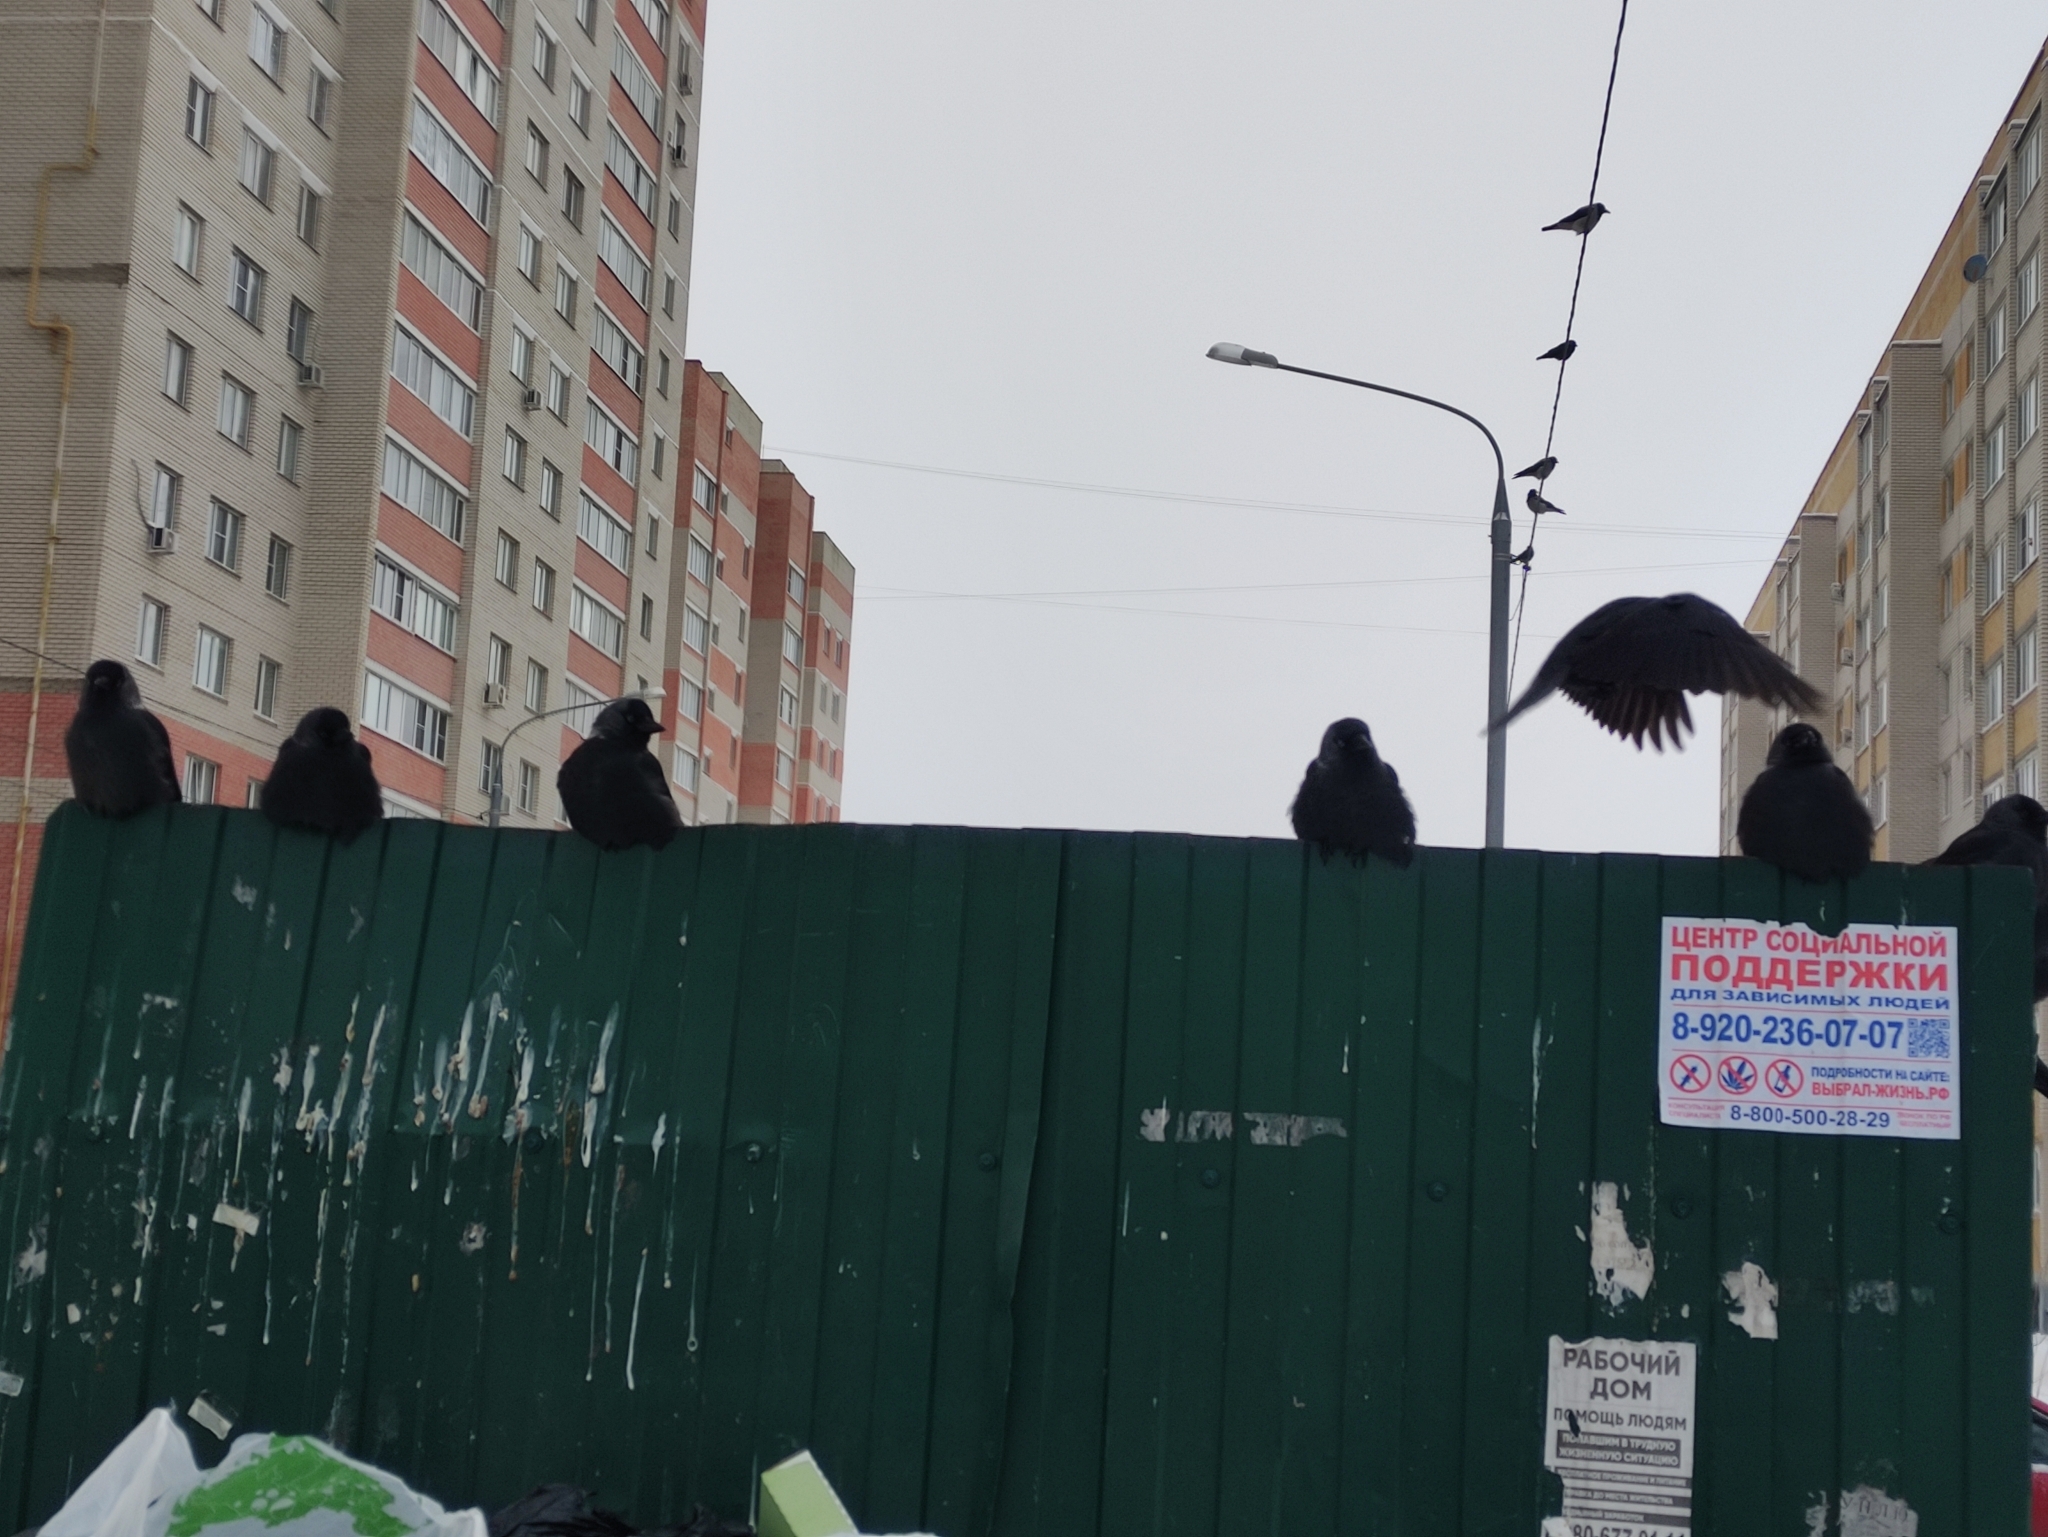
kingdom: Animalia
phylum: Chordata
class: Aves
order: Passeriformes
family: Corvidae
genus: Coloeus
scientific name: Coloeus monedula
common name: Western jackdaw
